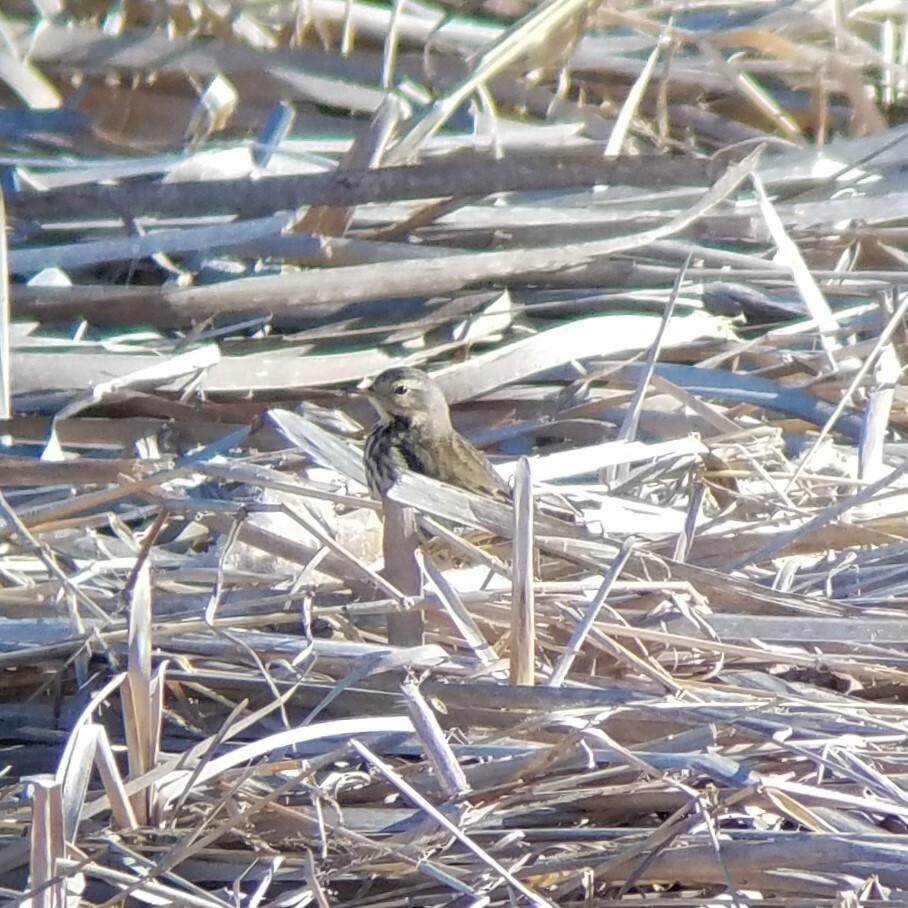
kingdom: Animalia
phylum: Chordata
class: Aves
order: Passeriformes
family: Motacillidae
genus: Anthus
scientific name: Anthus rubescens
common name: Buff-bellied pipit
